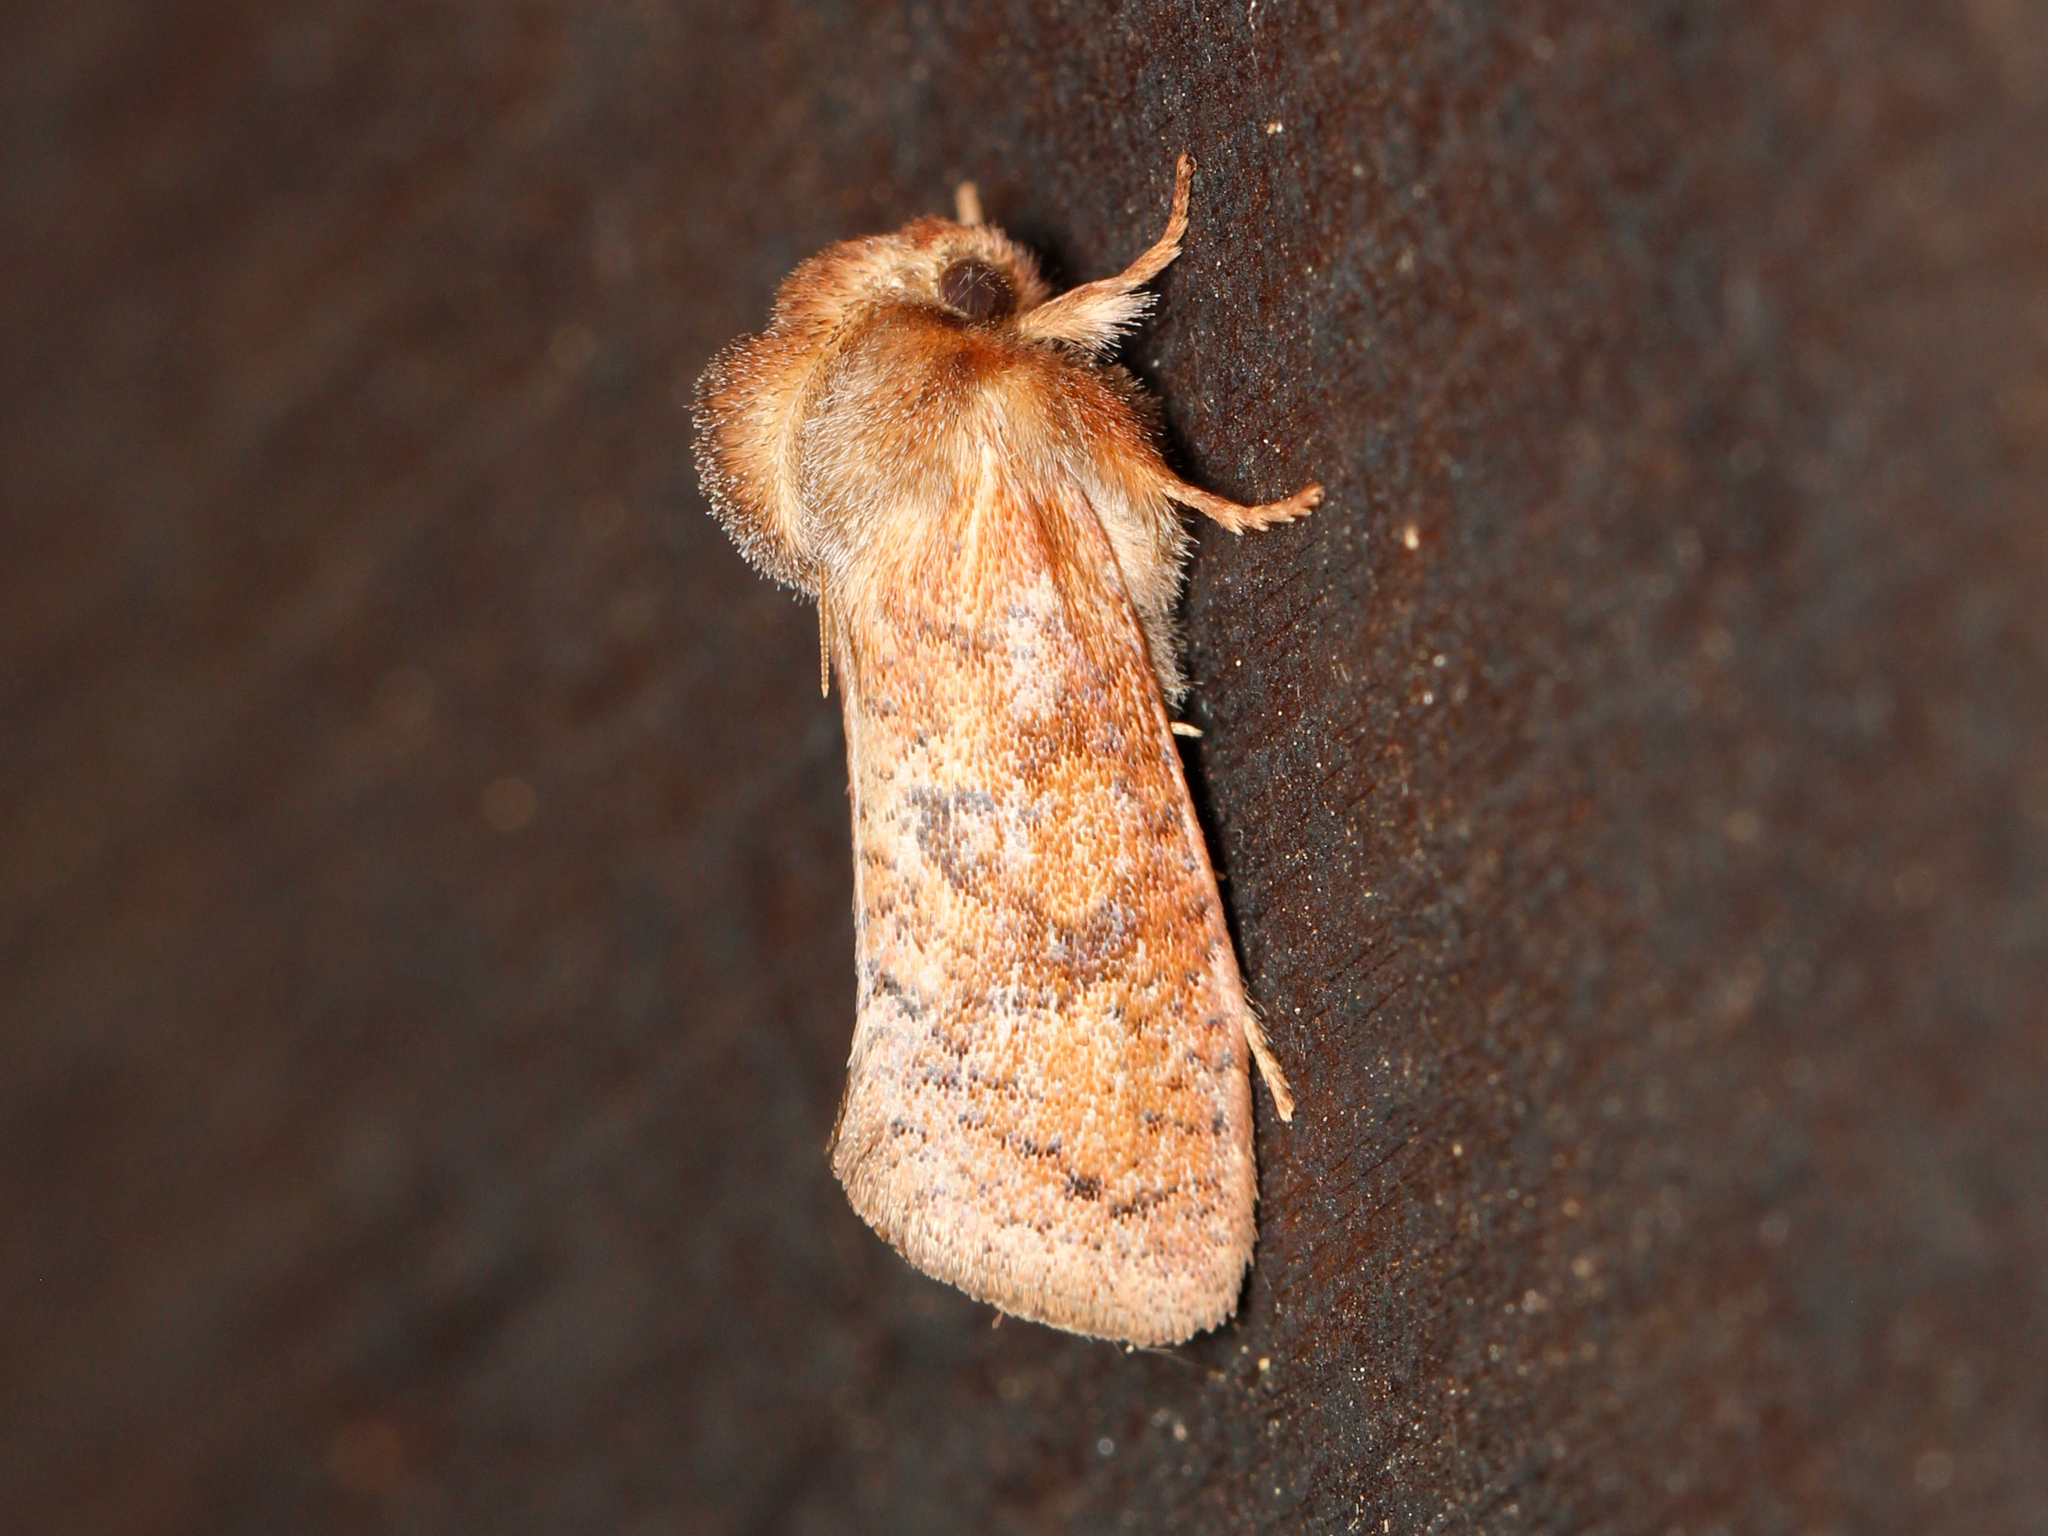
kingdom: Animalia
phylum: Arthropoda
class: Insecta
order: Lepidoptera
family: Tineidae
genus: Acrolophus
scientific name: Acrolophus plumifrontella
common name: Eastern grass tubeworm moth
